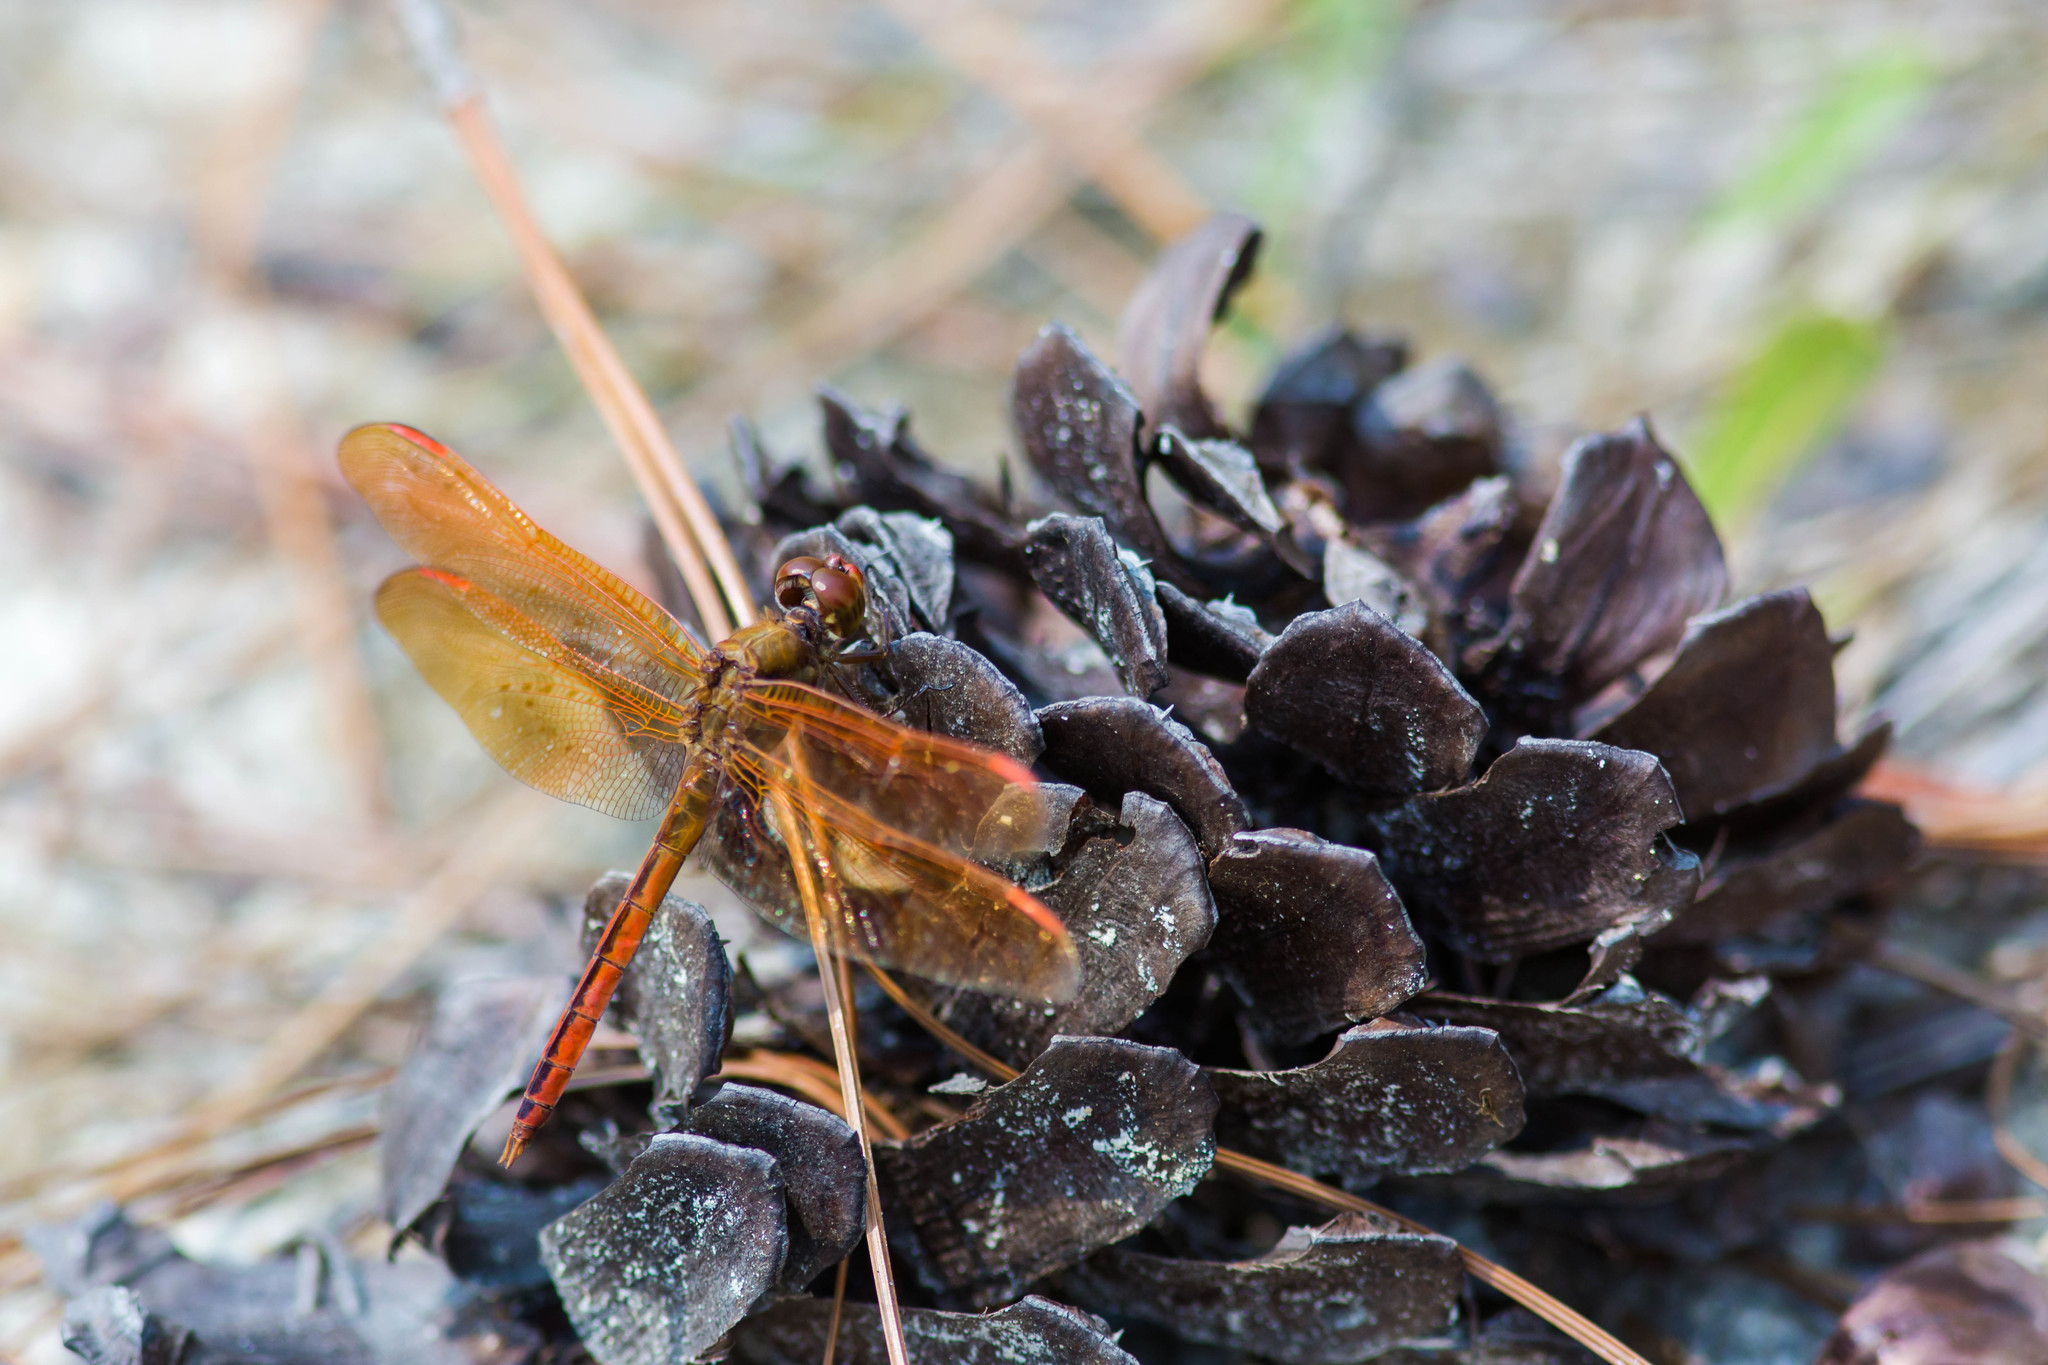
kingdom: Animalia
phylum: Arthropoda
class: Insecta
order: Odonata
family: Libellulidae
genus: Libellula
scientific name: Libellula auripennis
